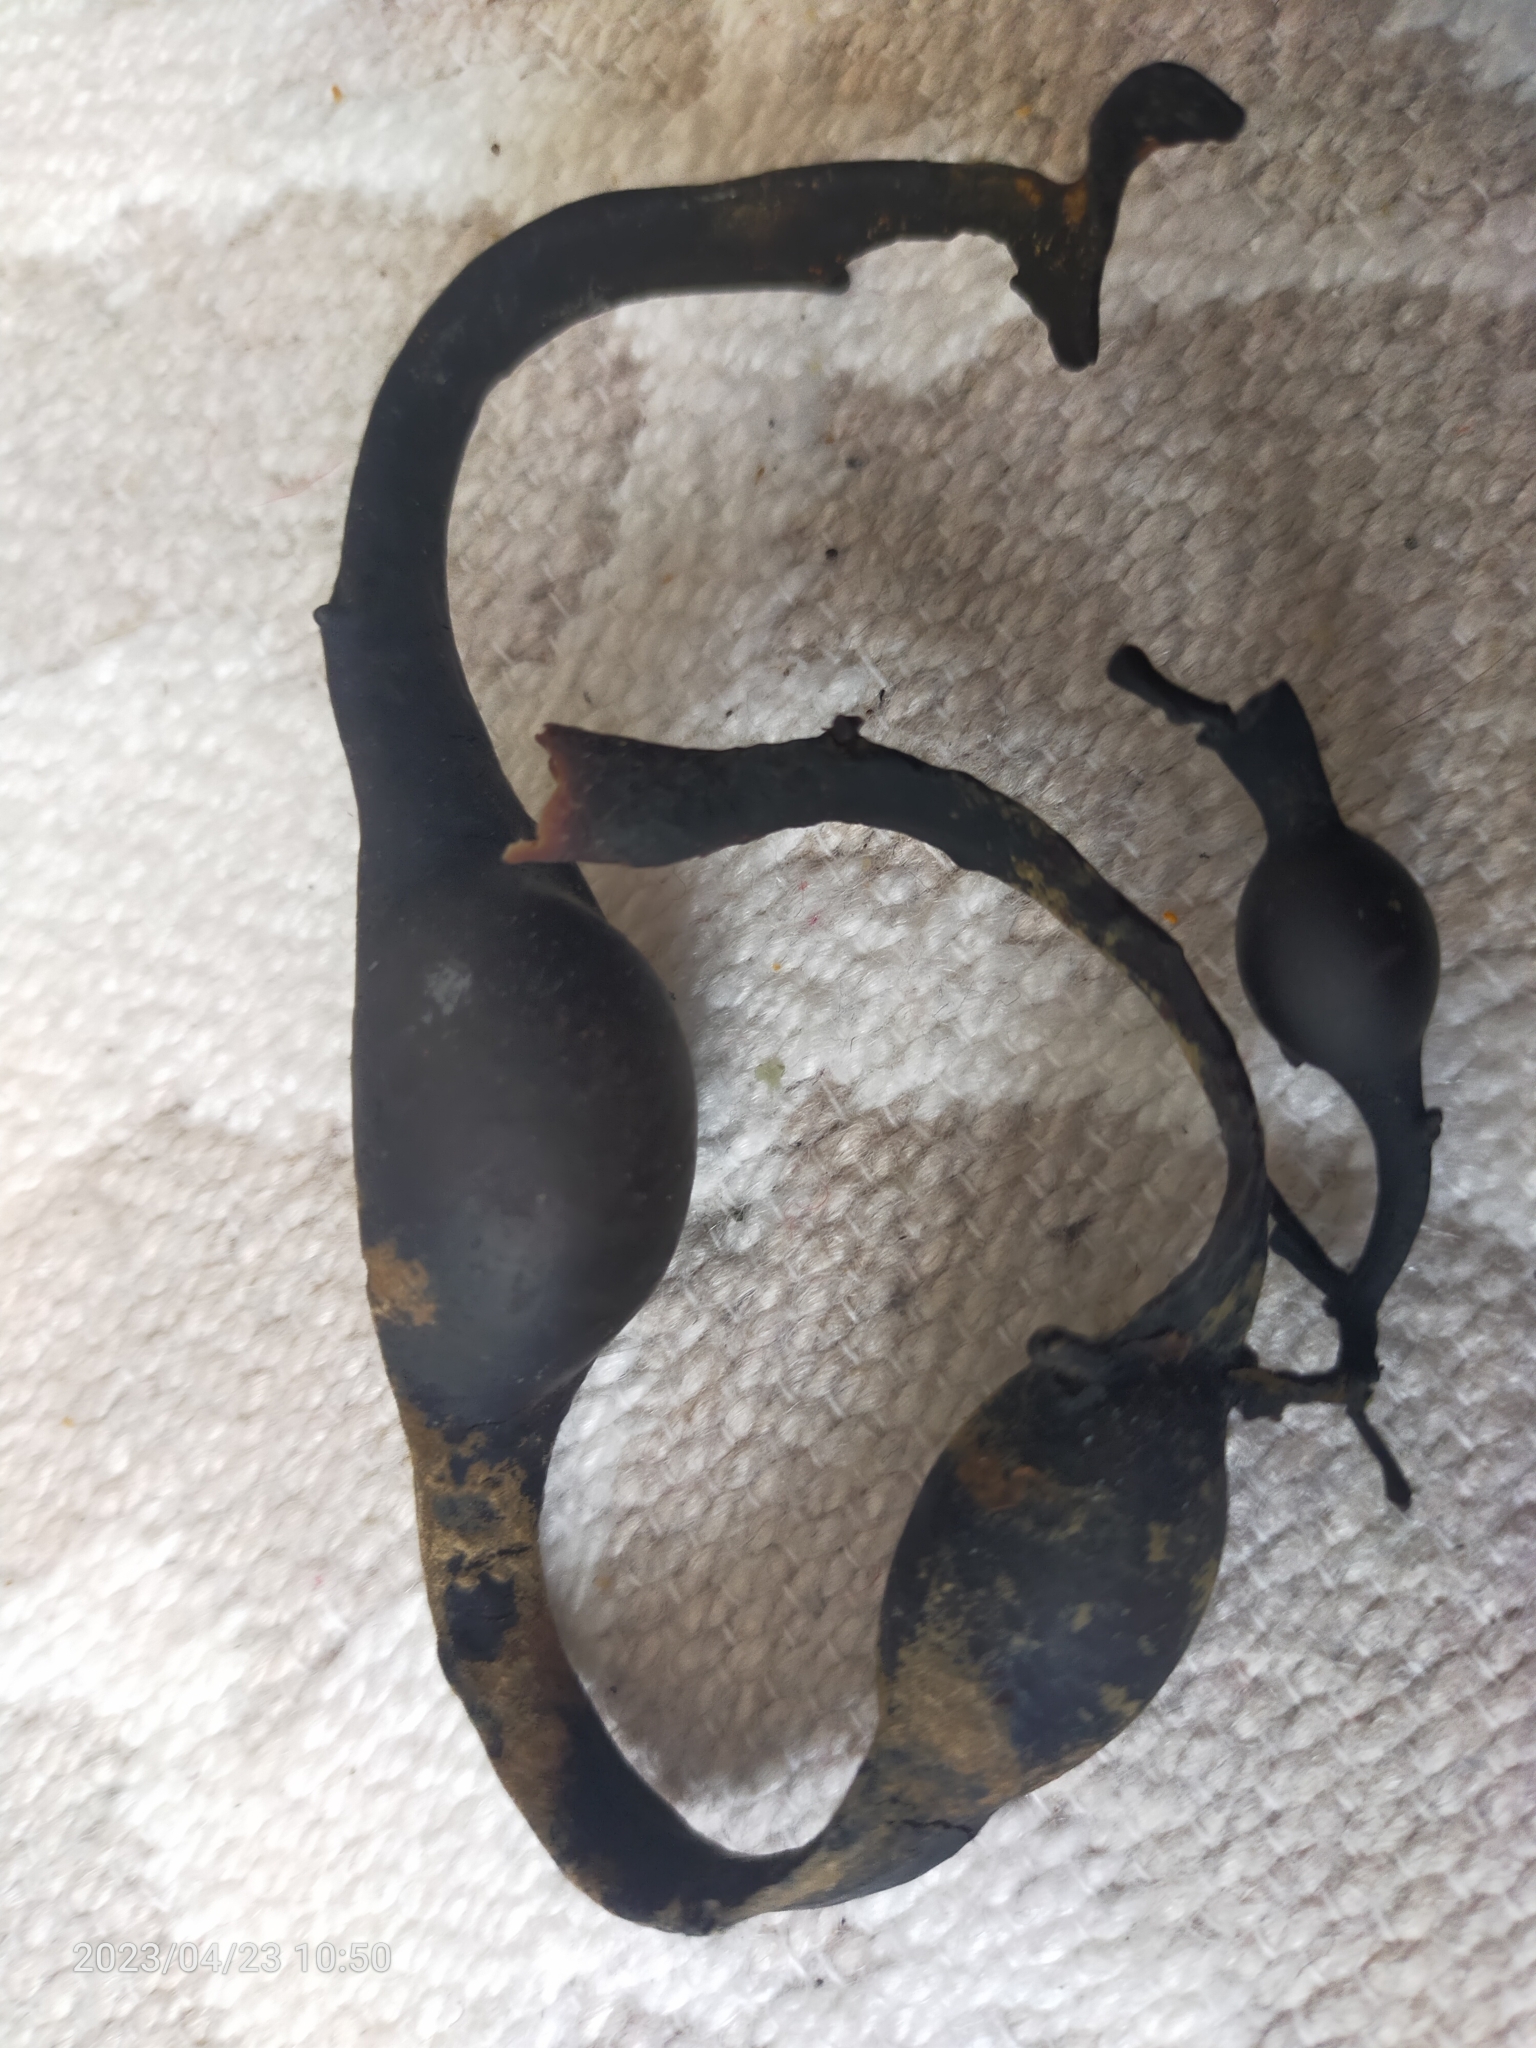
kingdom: Chromista
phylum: Ochrophyta
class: Phaeophyceae
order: Fucales
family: Fucaceae
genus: Ascophyllum
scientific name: Ascophyllum nodosum
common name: Knotted wrack
